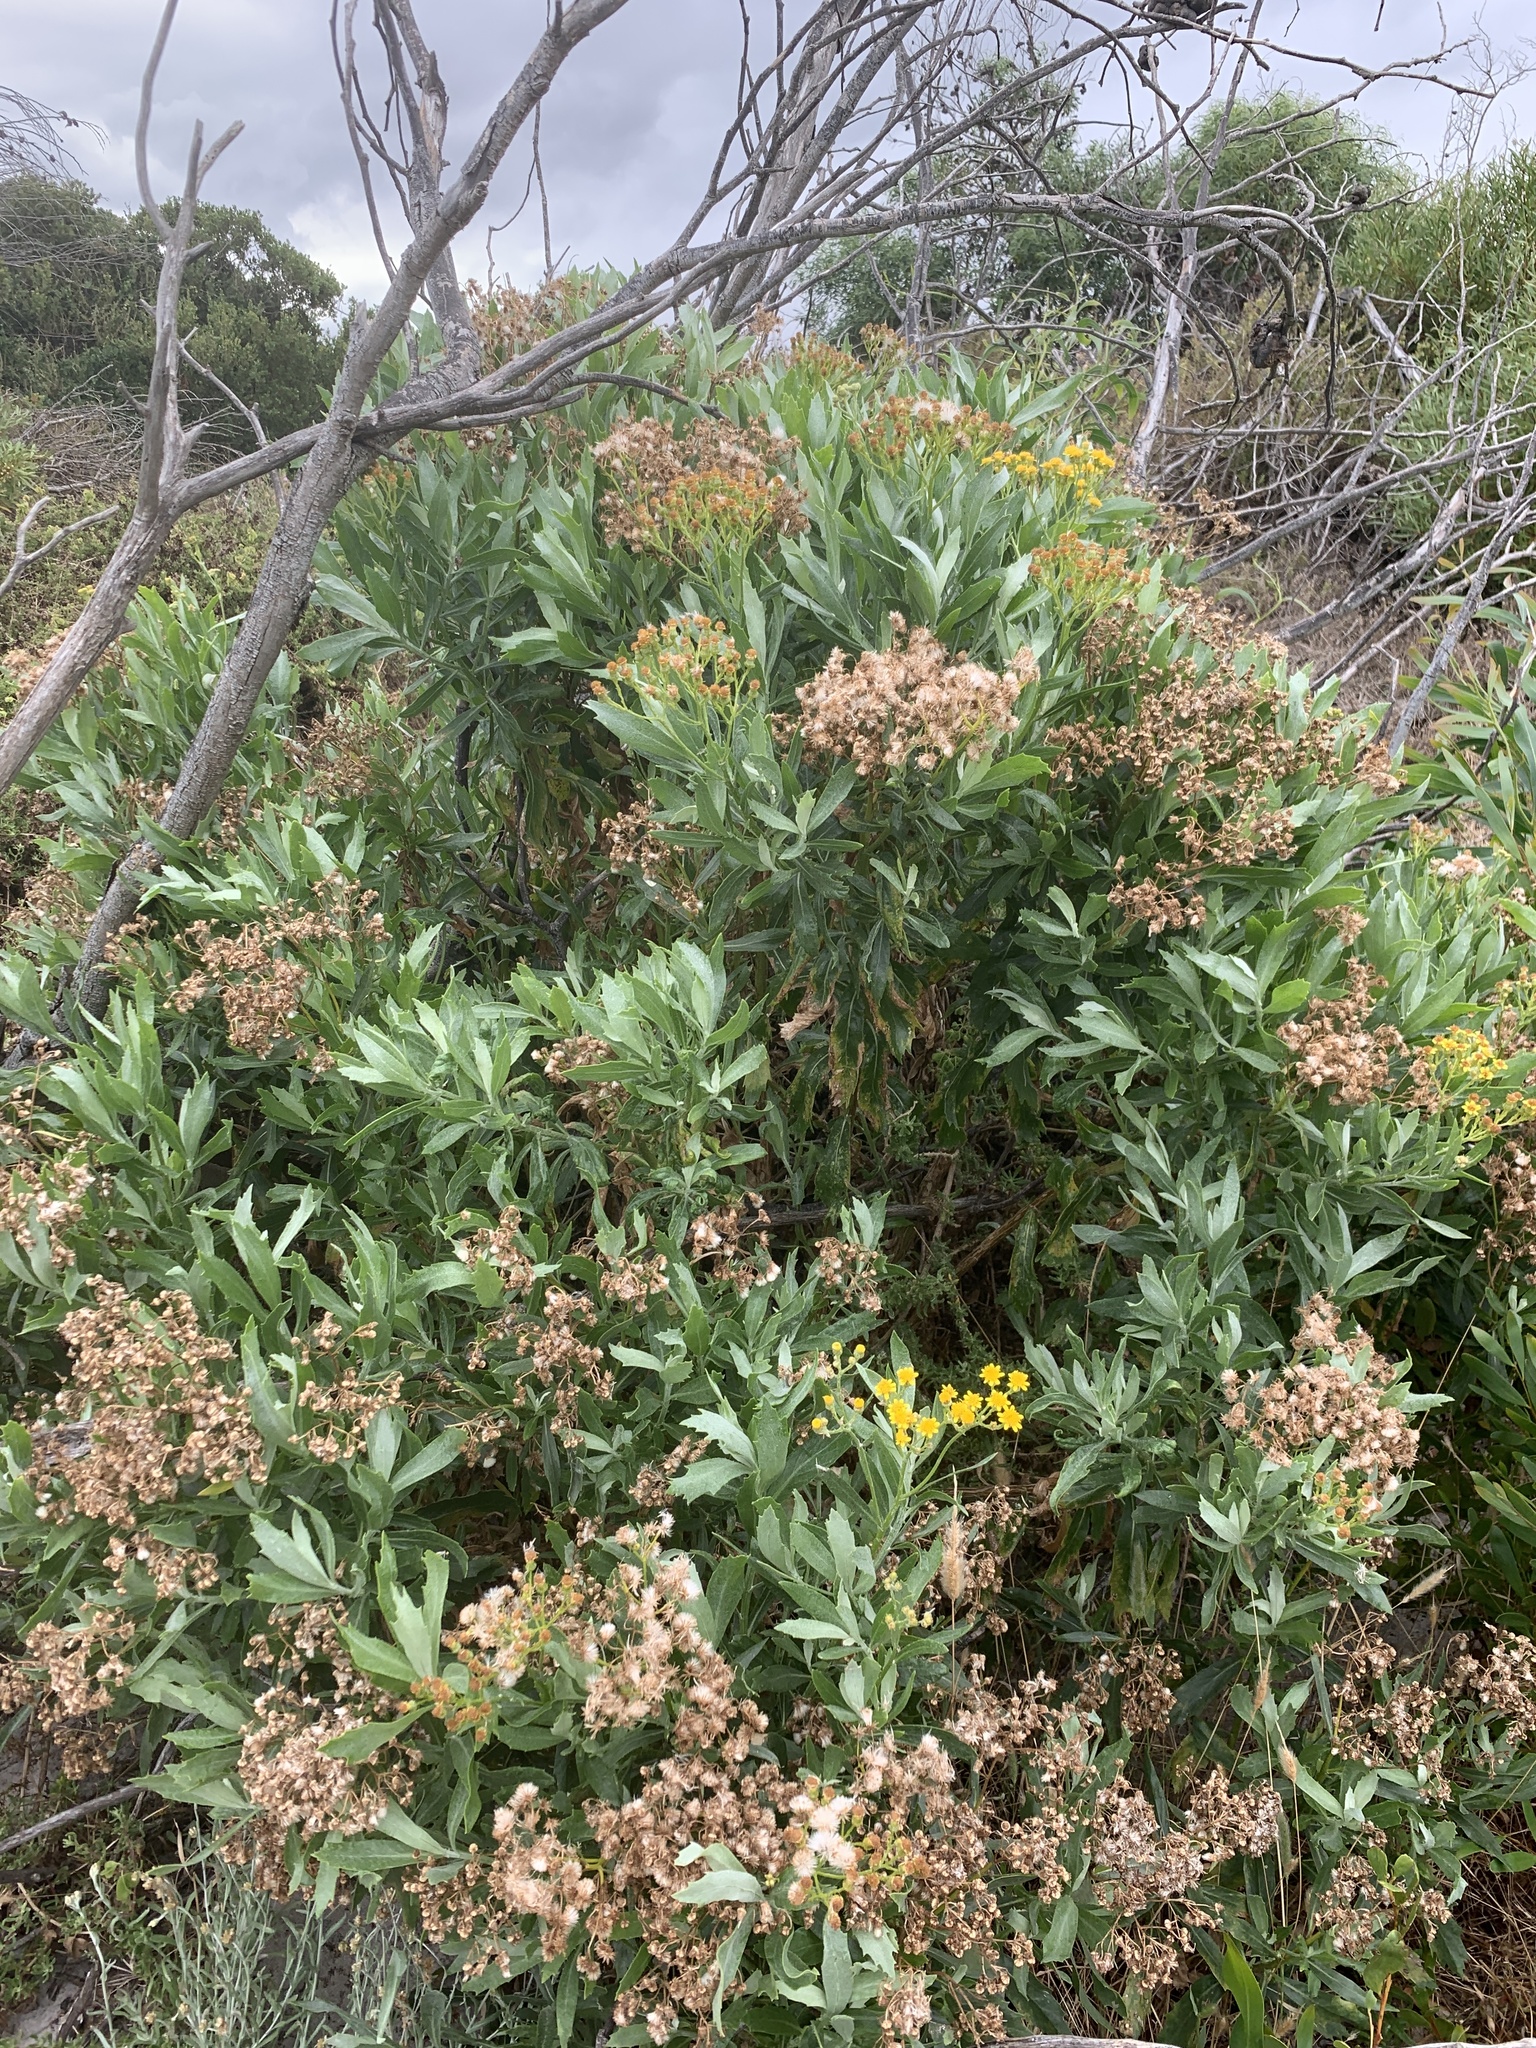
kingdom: Plantae
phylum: Tracheophyta
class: Magnoliopsida
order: Asterales
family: Asteraceae
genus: Senecio
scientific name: Senecio halimifolius
